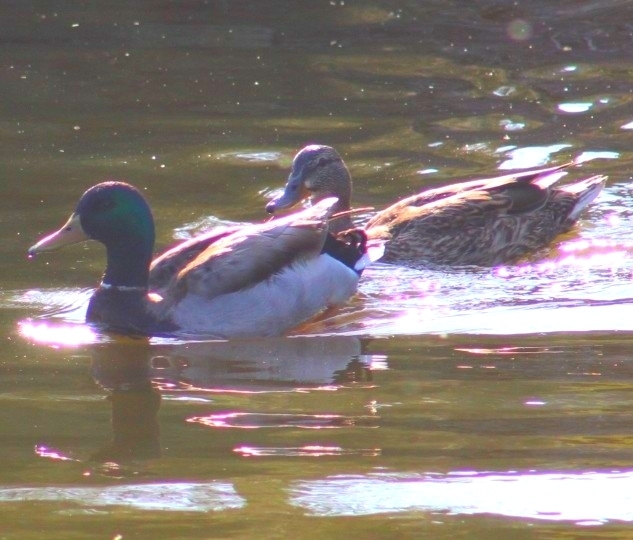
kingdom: Animalia
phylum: Chordata
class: Aves
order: Anseriformes
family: Anatidae
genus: Anas
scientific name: Anas platyrhynchos
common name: Mallard
